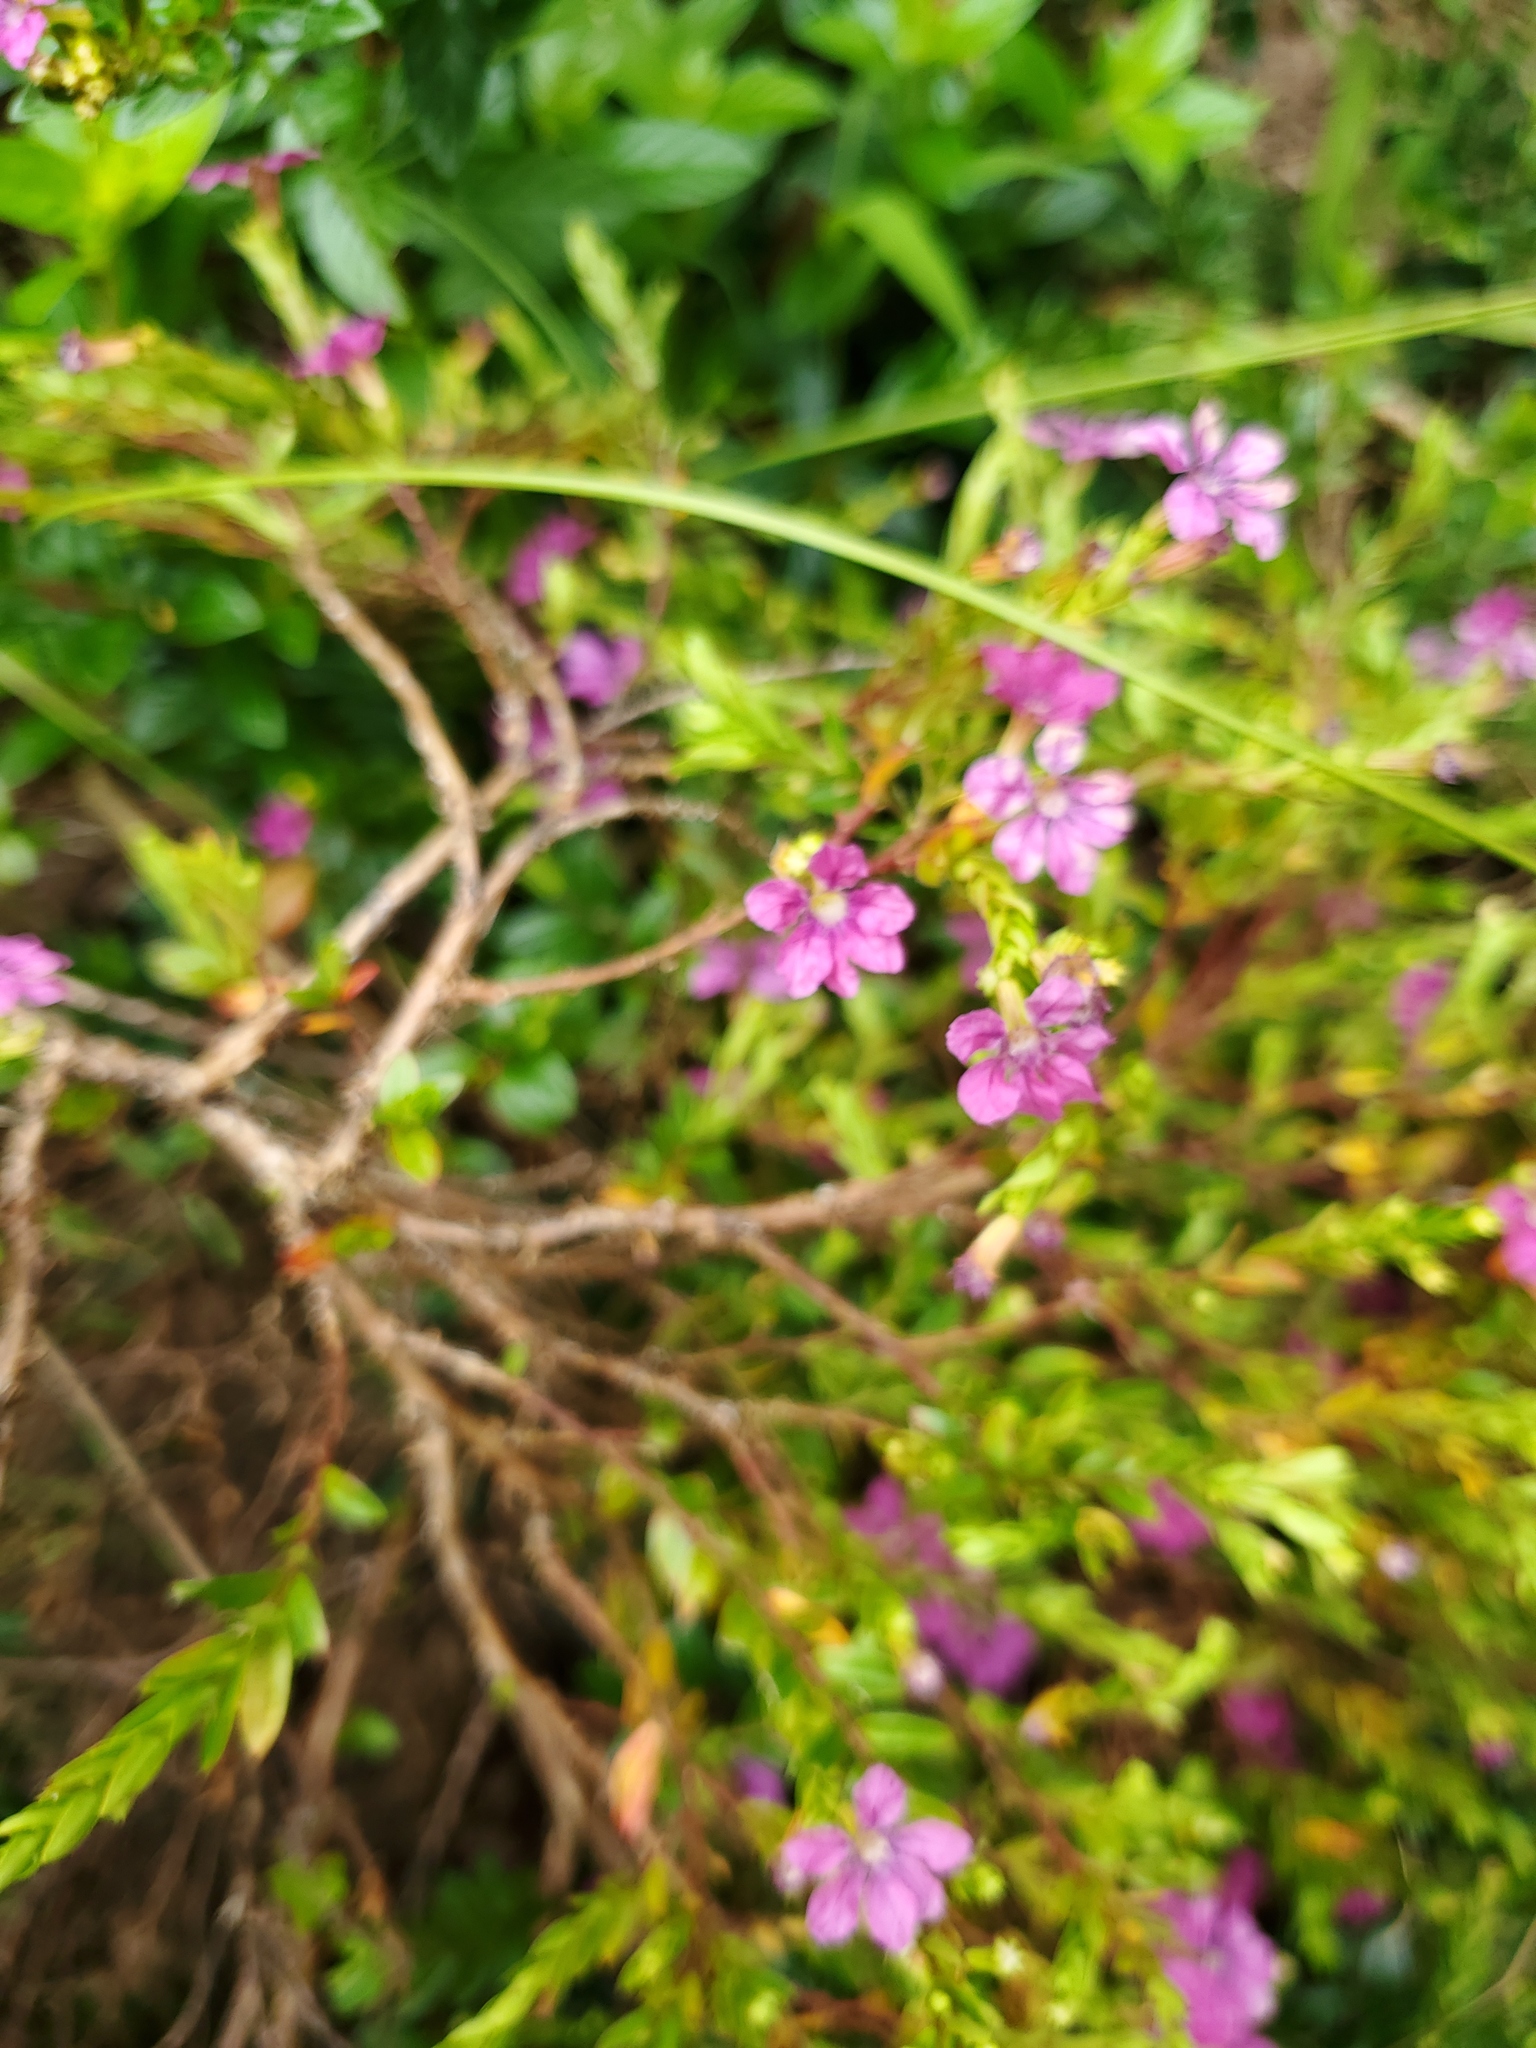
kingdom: Plantae
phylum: Tracheophyta
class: Magnoliopsida
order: Myrtales
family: Lythraceae
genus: Cuphea
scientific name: Cuphea hyssopifolia
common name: False heather
